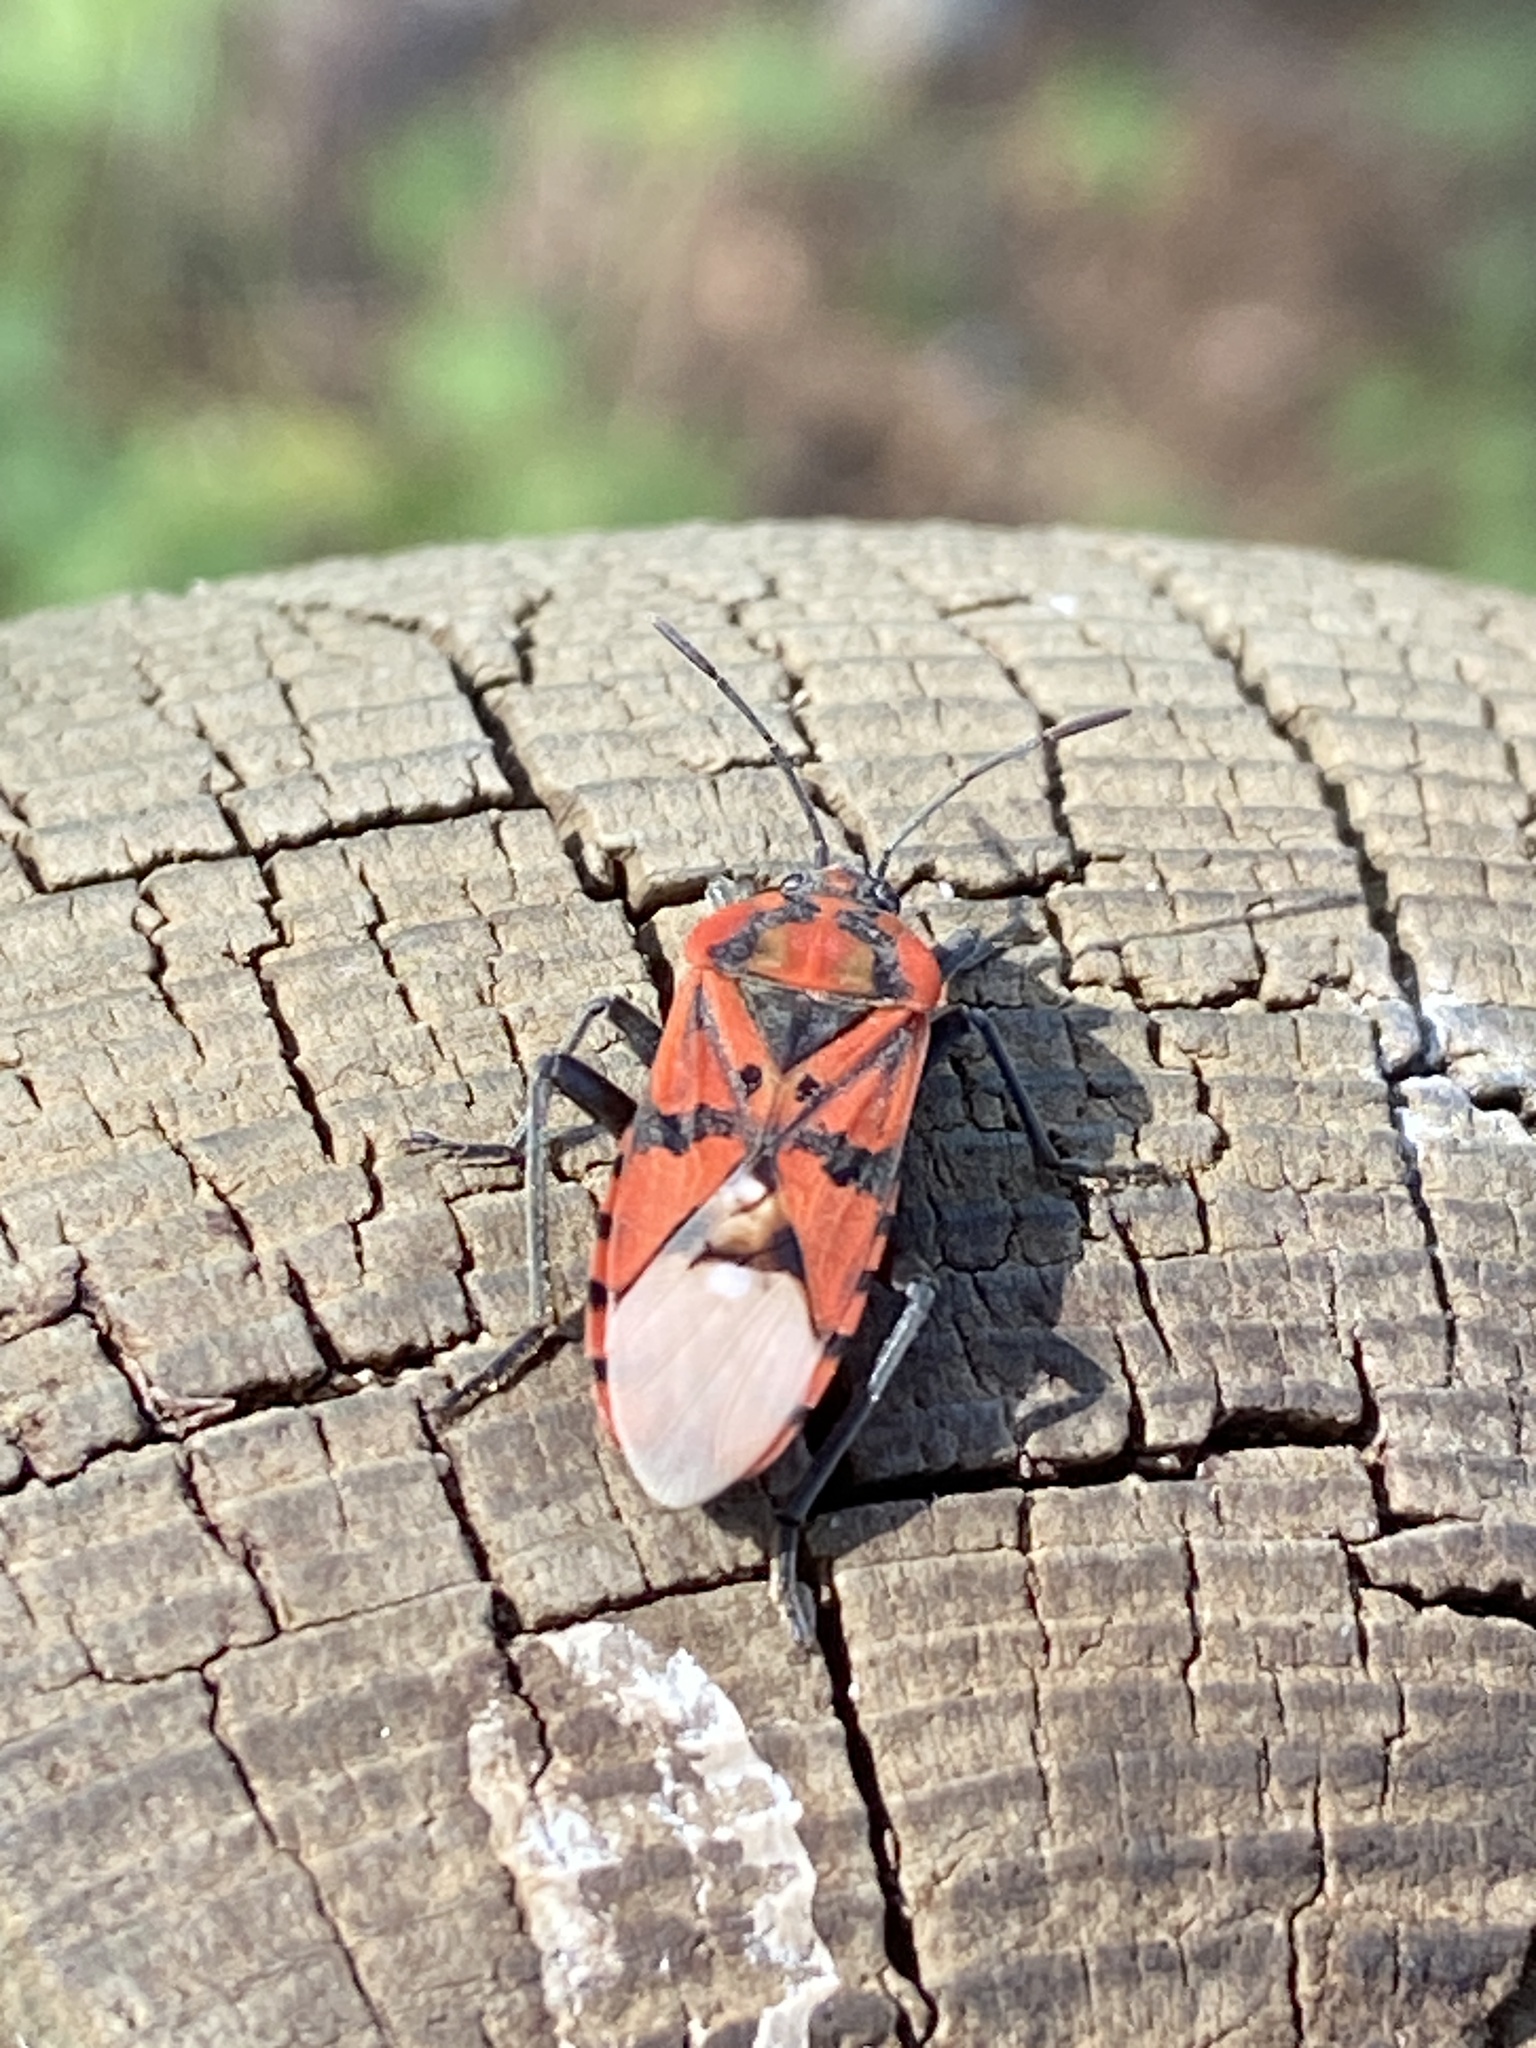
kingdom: Animalia
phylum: Arthropoda
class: Insecta
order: Hemiptera
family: Lygaeidae
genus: Spilostethus
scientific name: Spilostethus pandurus
